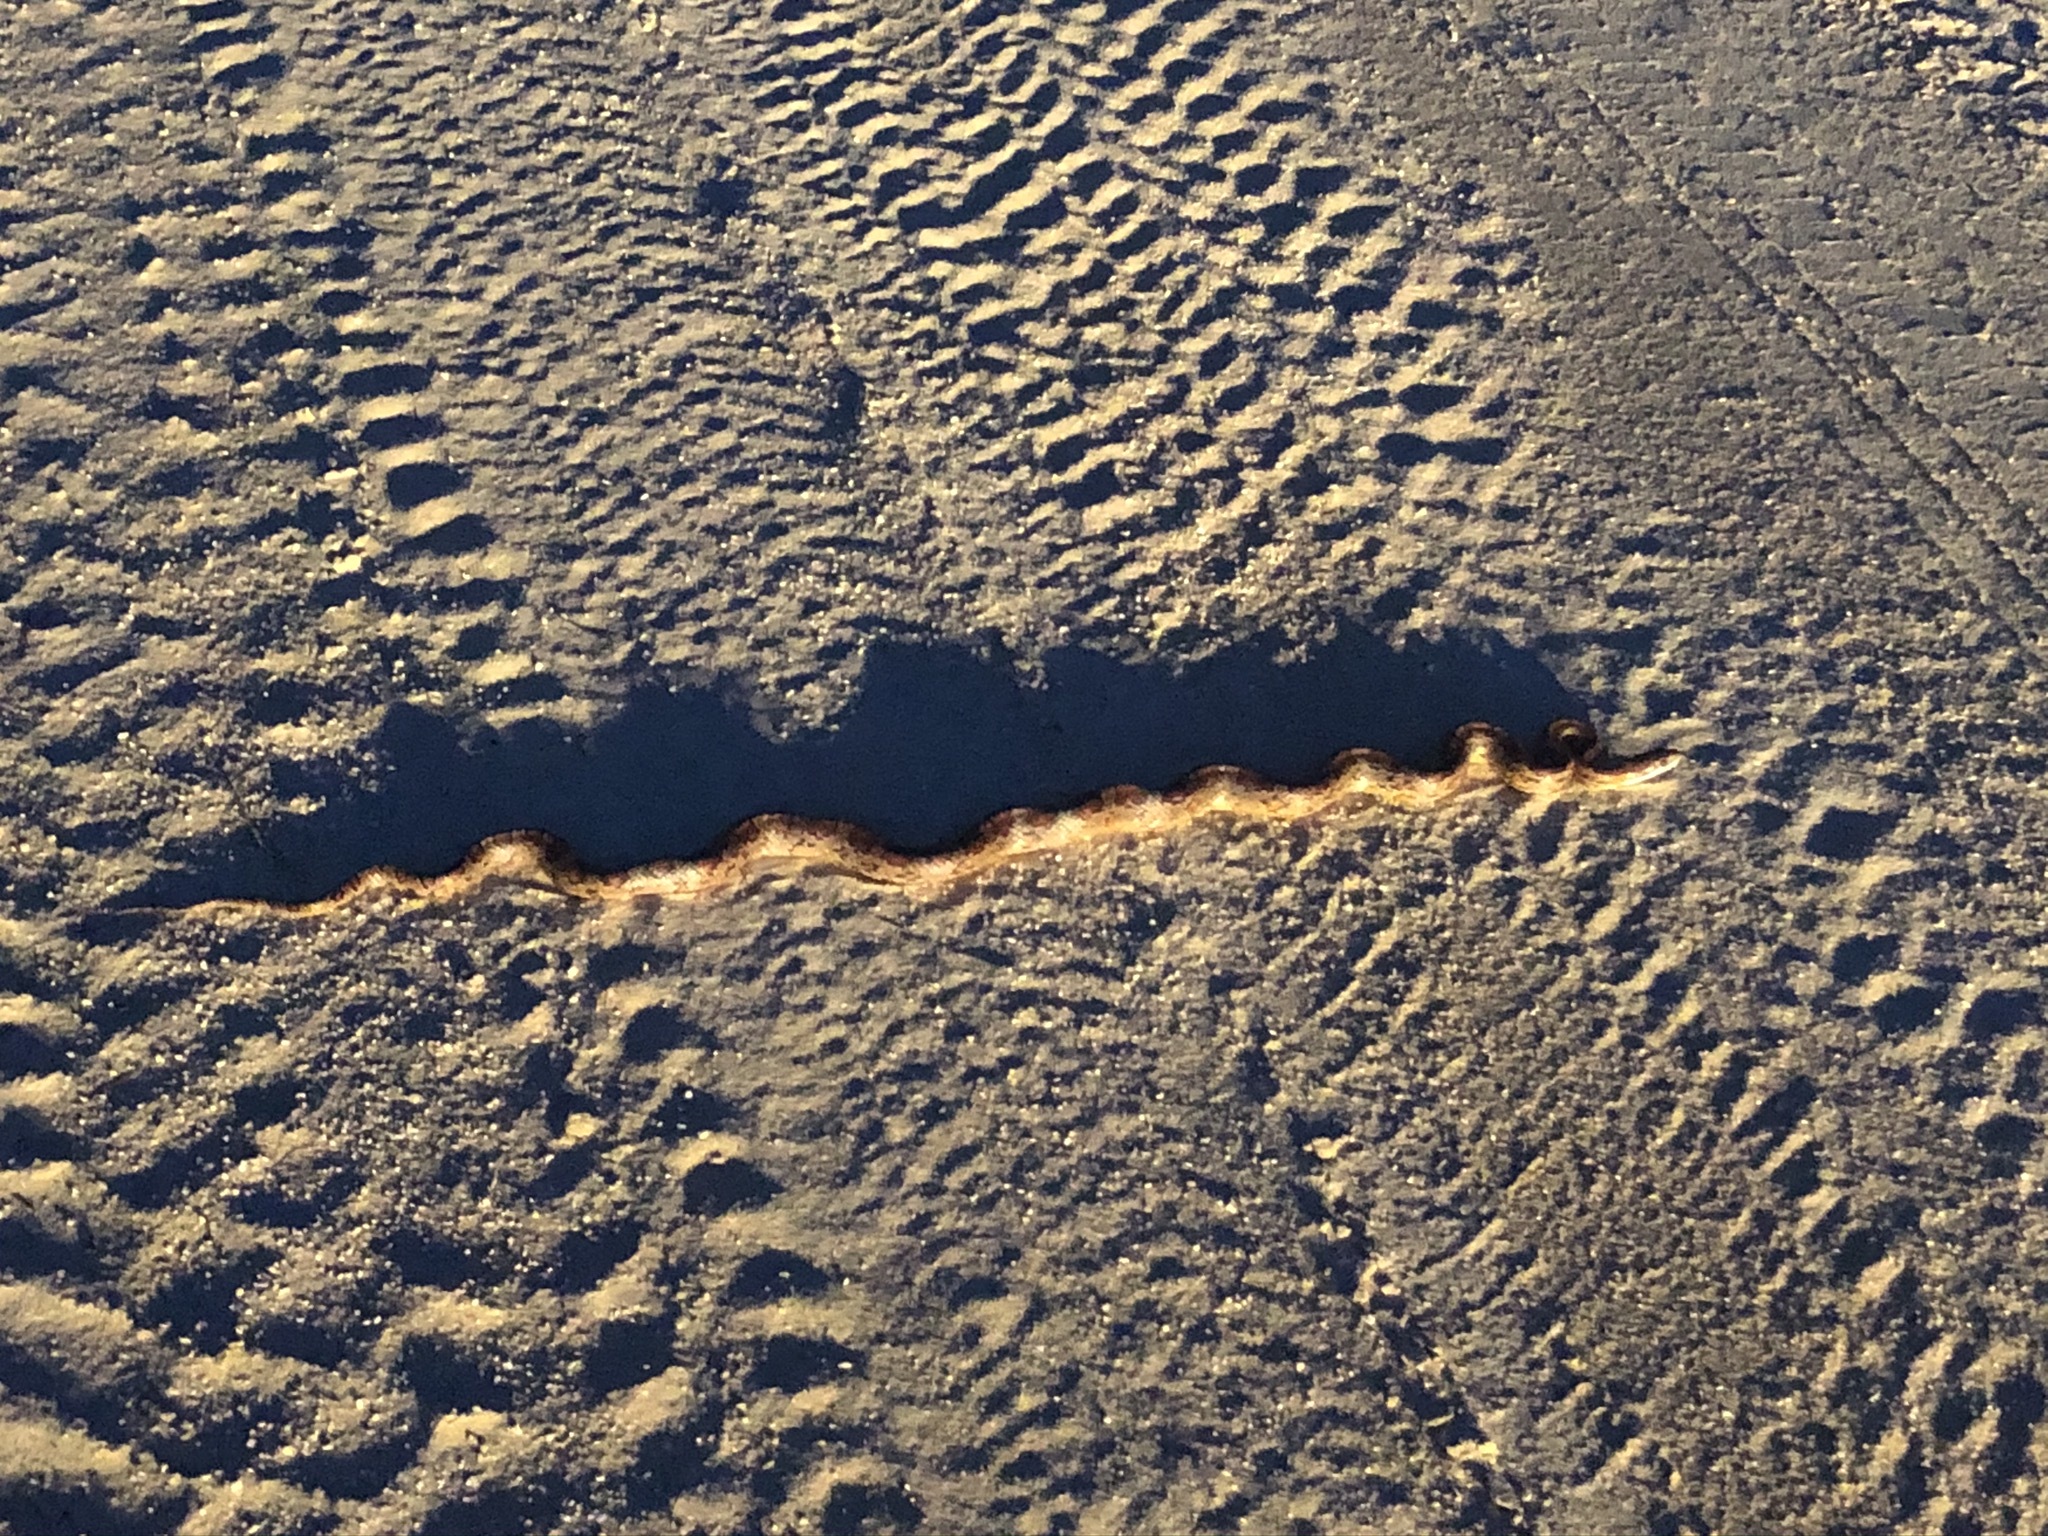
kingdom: Animalia
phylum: Chordata
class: Squamata
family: Colubridae
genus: Pantherophis
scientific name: Pantherophis guttatus
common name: Red cornsnake
